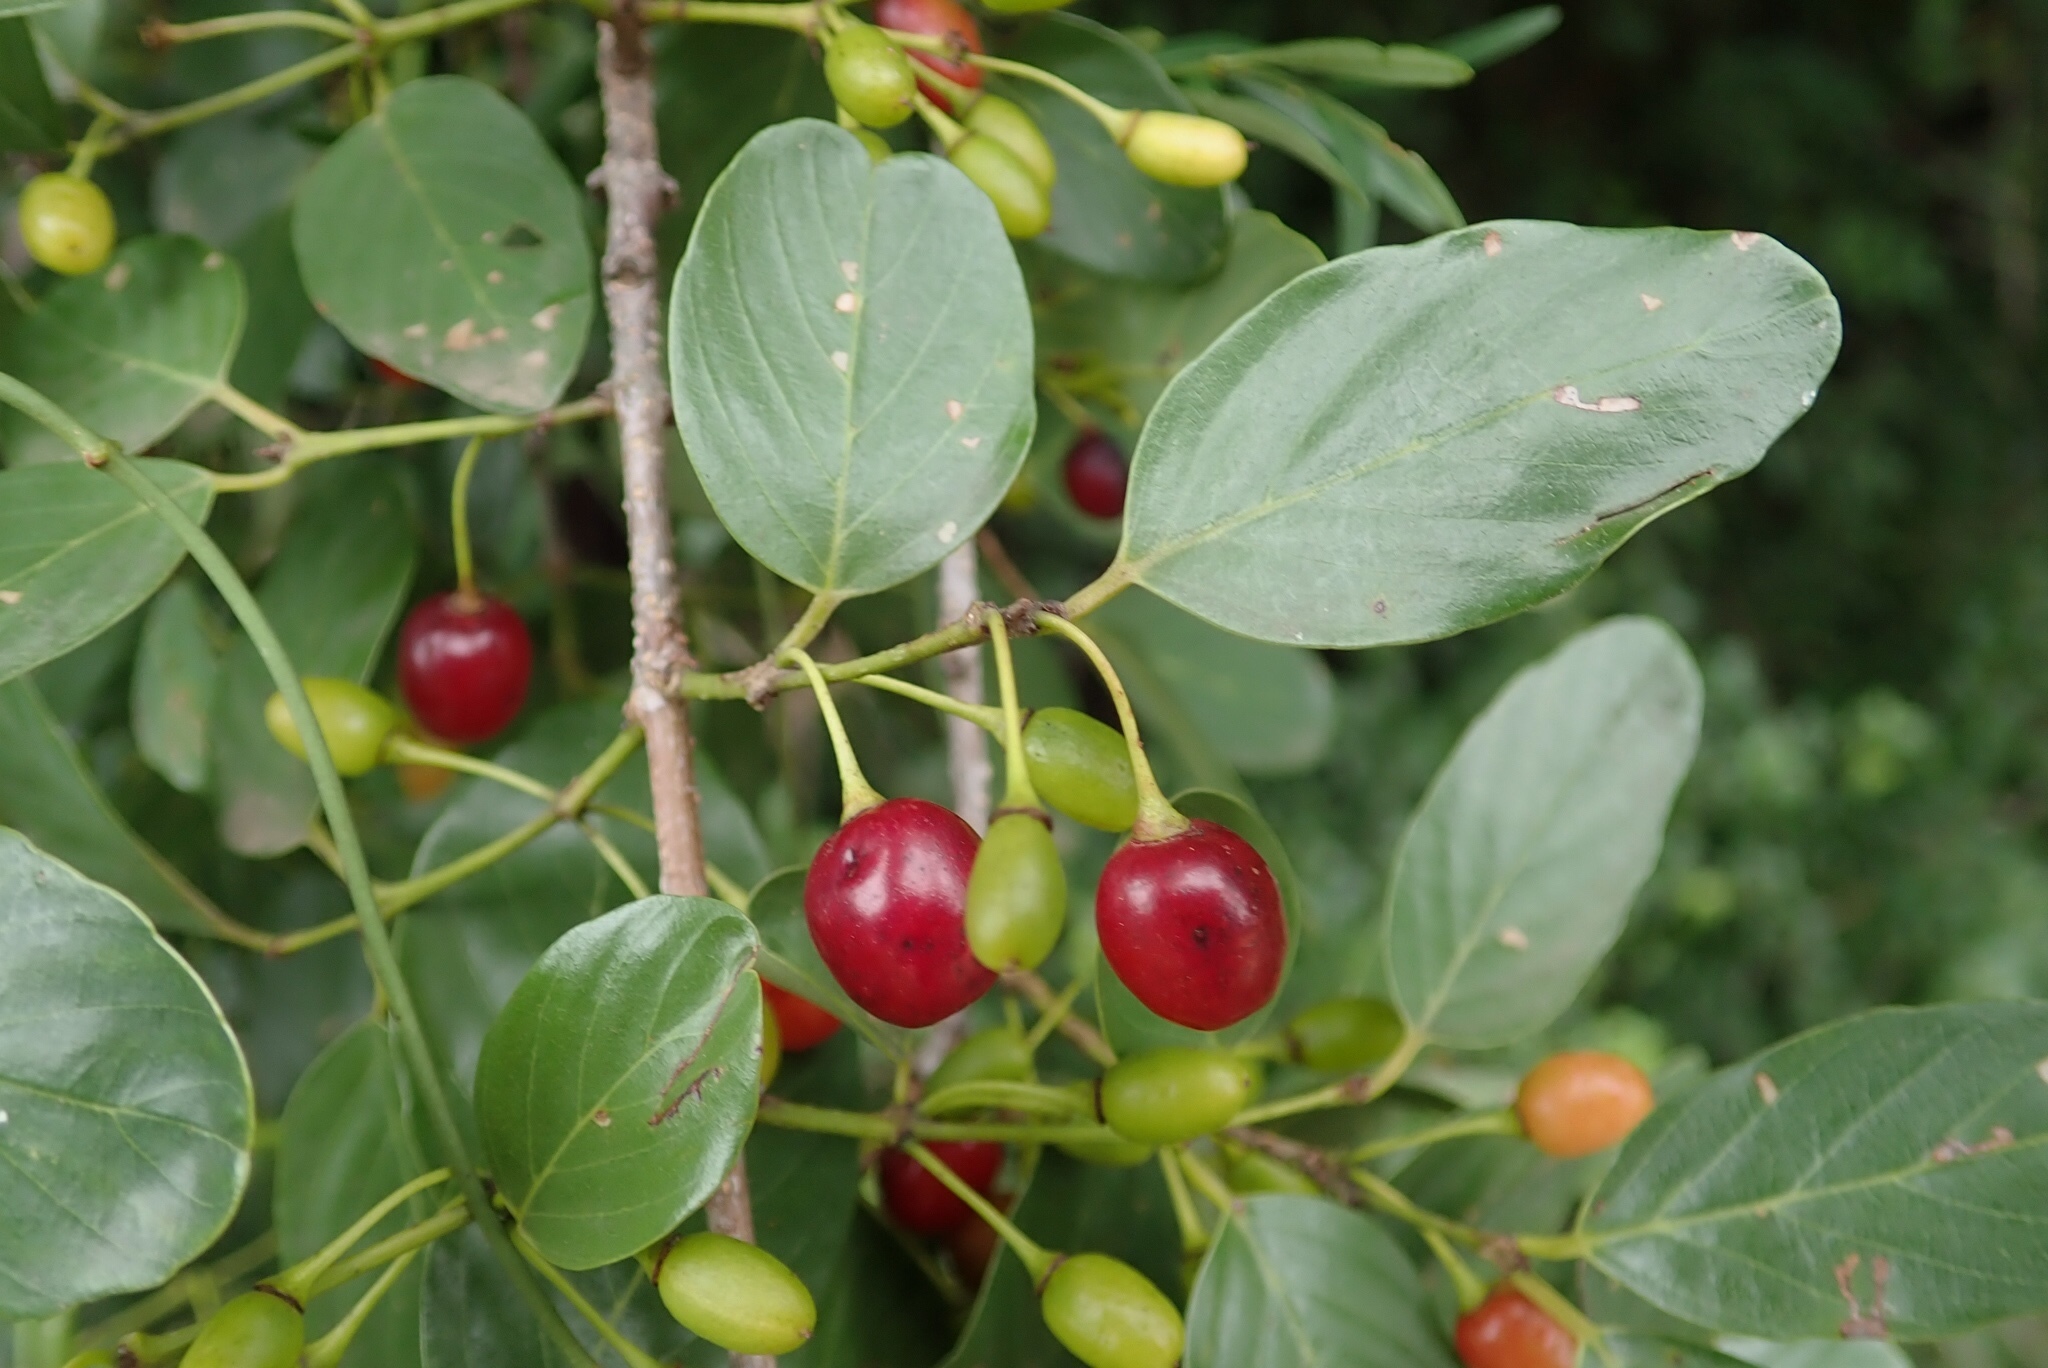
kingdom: Plantae
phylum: Tracheophyta
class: Magnoliopsida
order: Rosales
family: Rhamnaceae
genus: Phyllogeiton
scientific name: Phyllogeiton zeyheri
